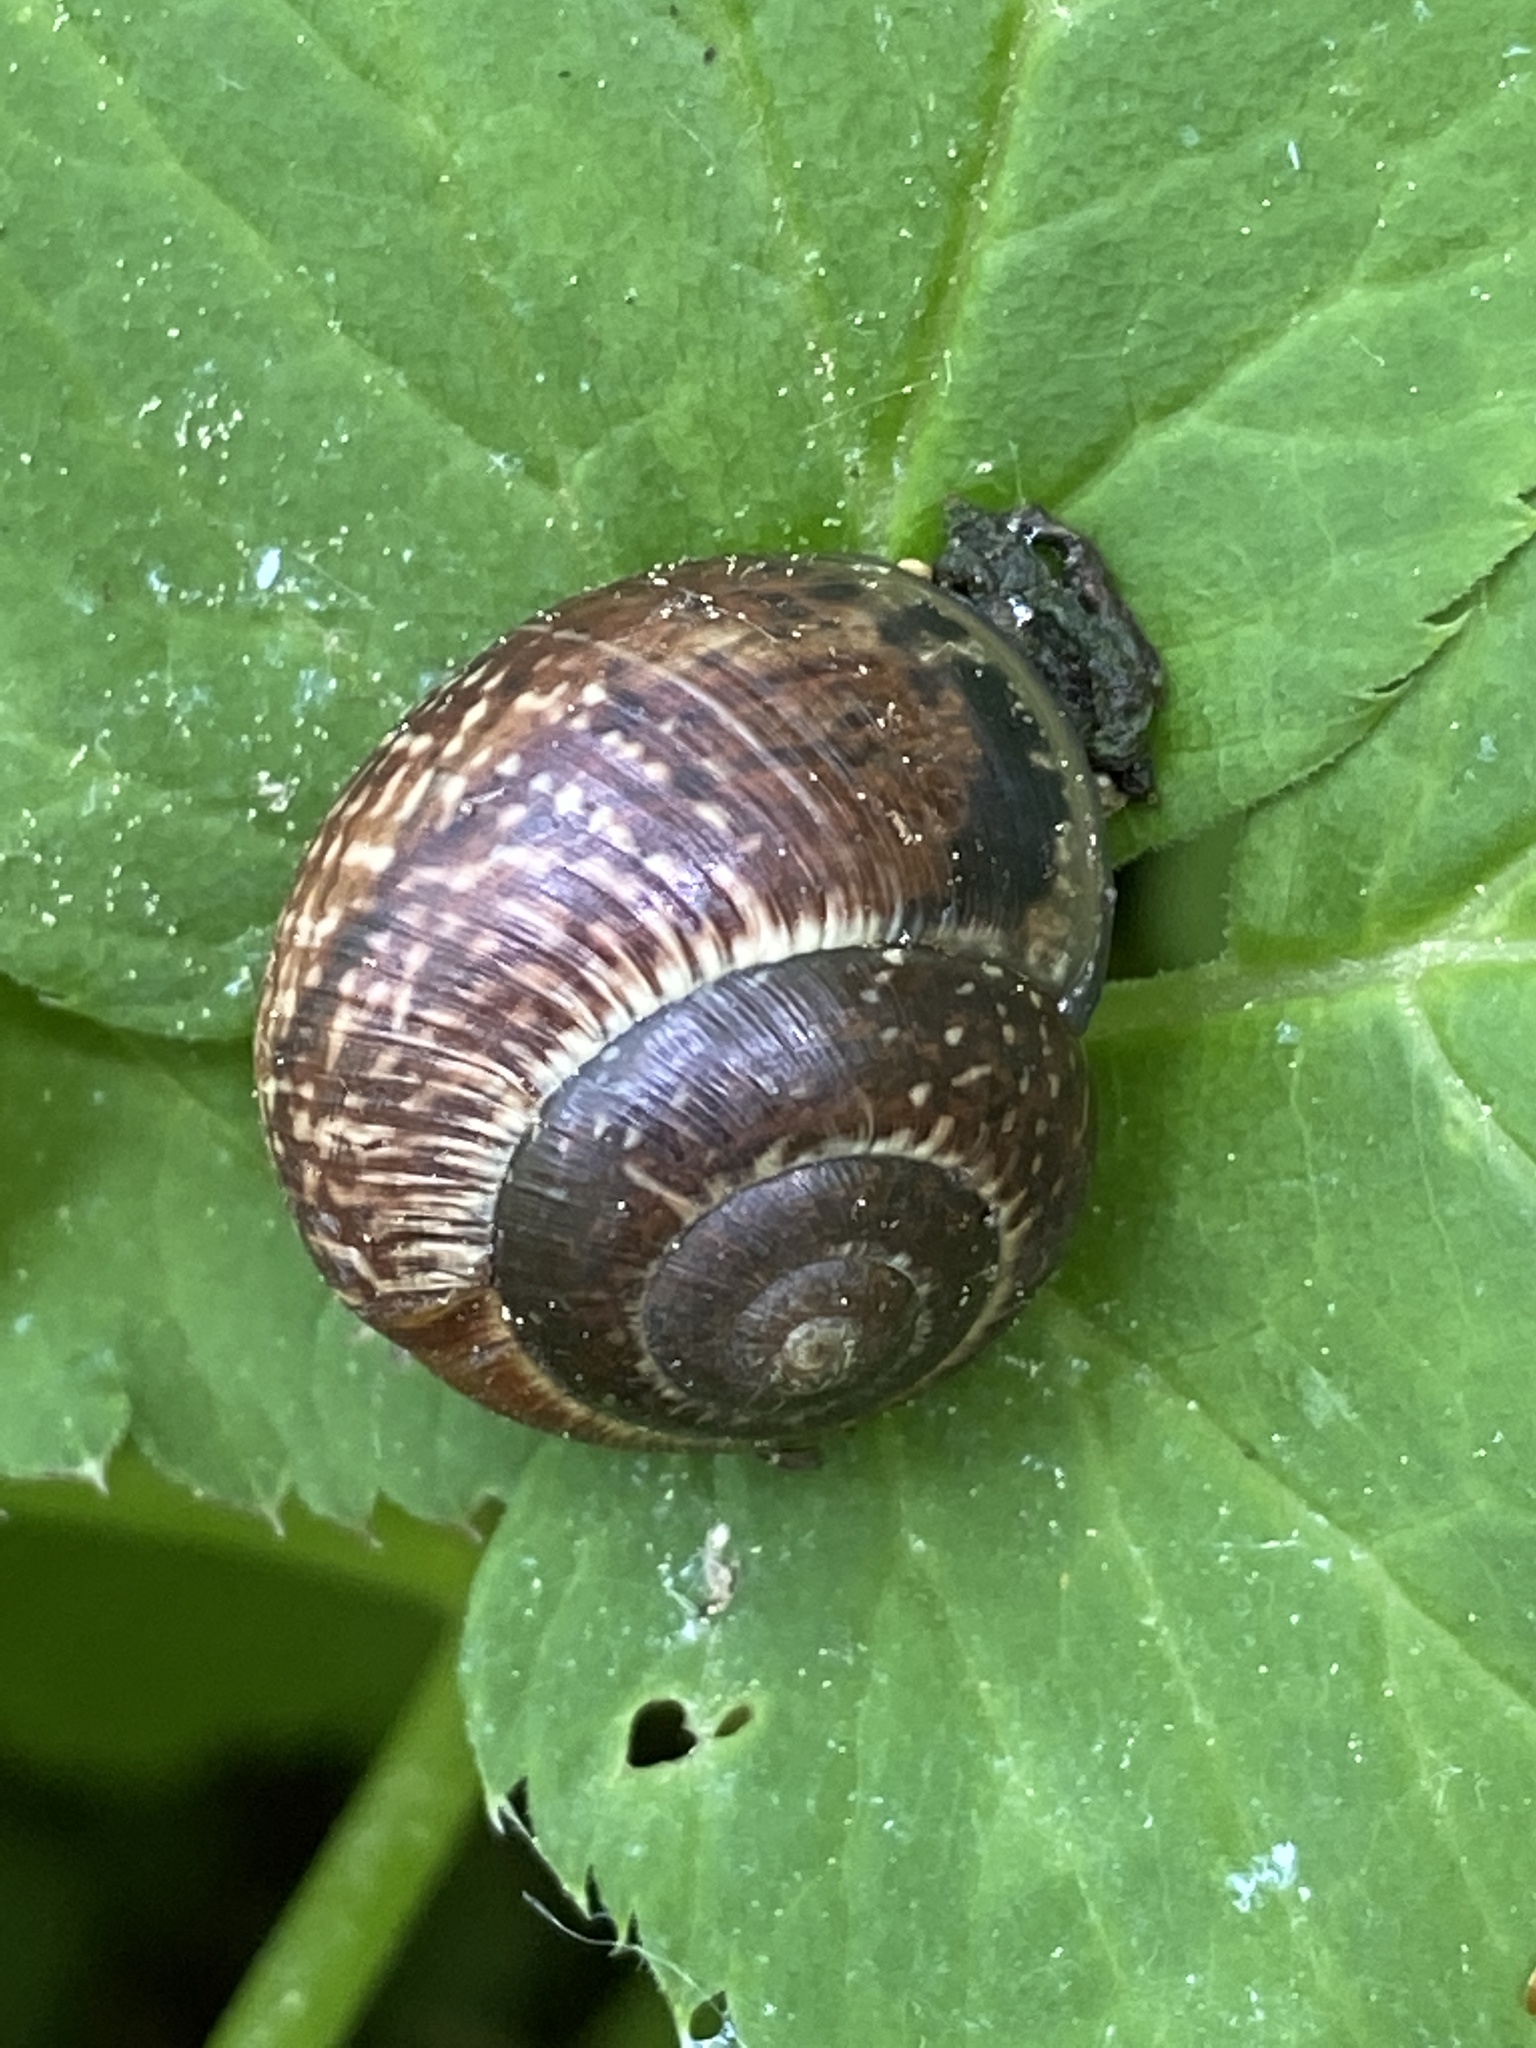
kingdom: Animalia
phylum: Mollusca
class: Gastropoda
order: Stylommatophora
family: Helicidae
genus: Arianta
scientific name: Arianta arbustorum
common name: Copse snail
